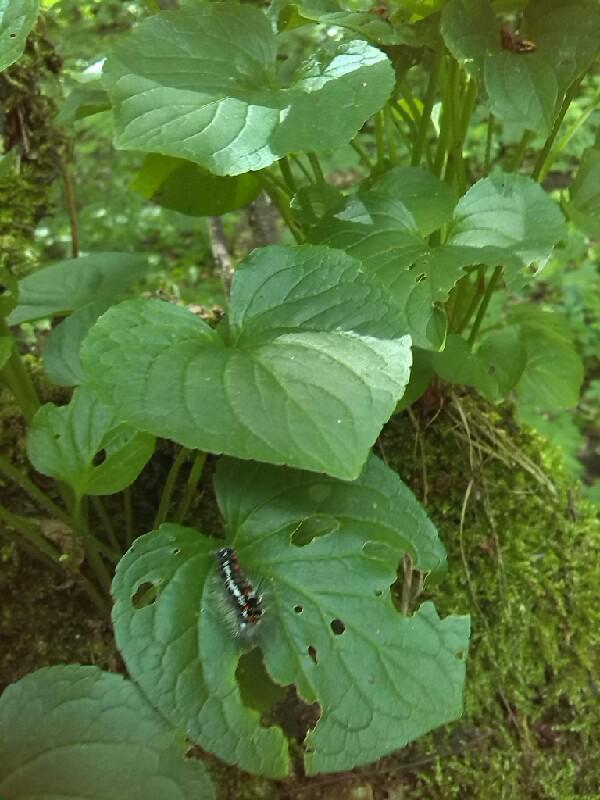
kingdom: Plantae
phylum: Tracheophyta
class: Magnoliopsida
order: Malpighiales
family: Violaceae
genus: Viola
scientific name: Viola mirabilis
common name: Wonder violet
